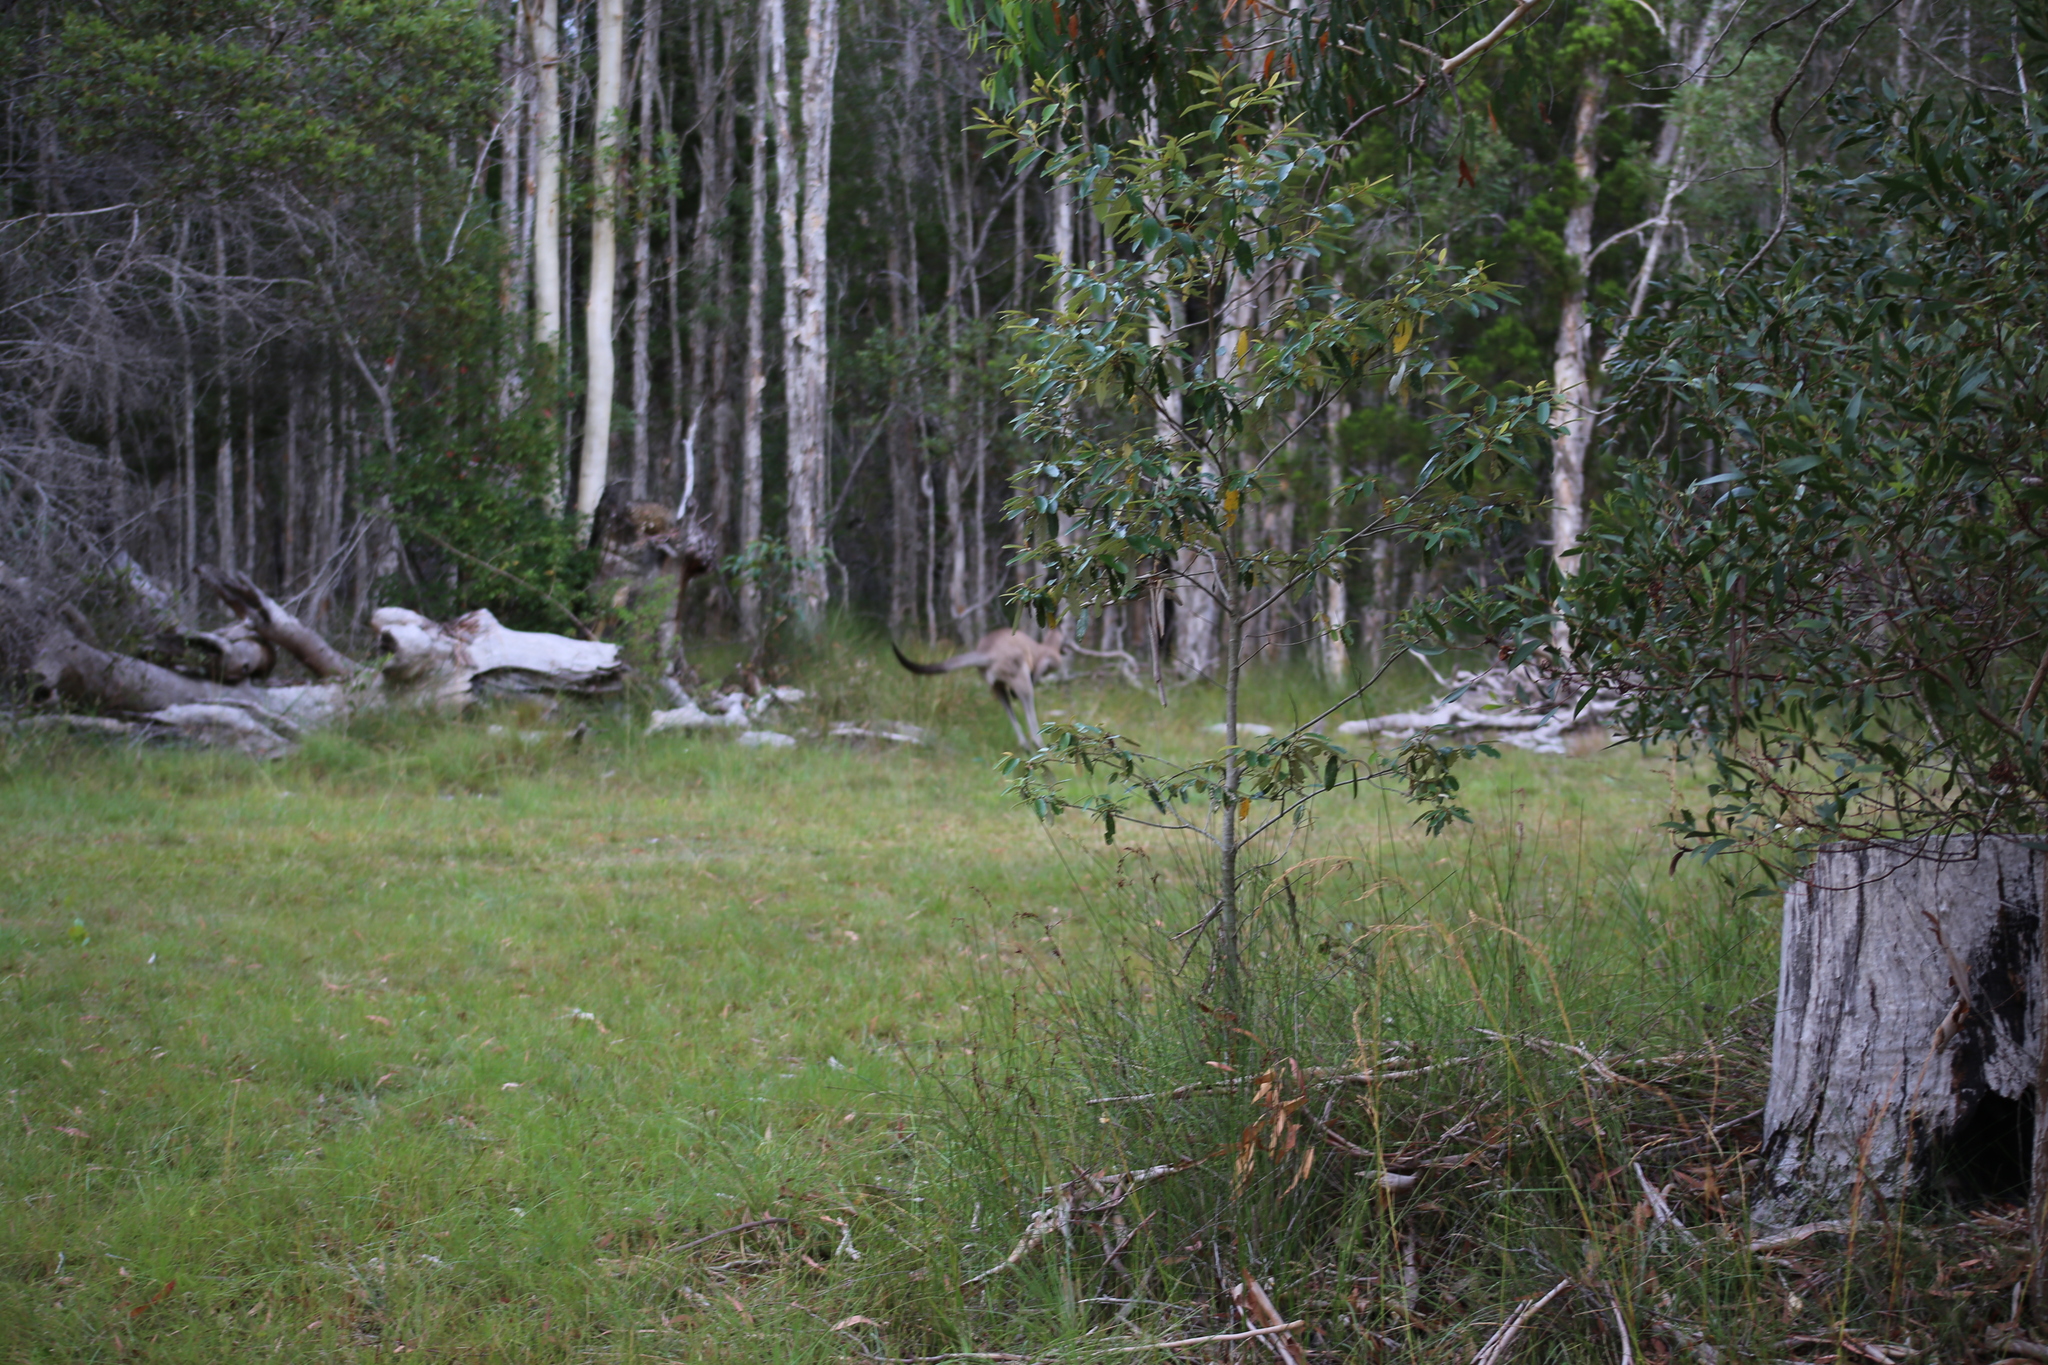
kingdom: Animalia
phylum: Chordata
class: Mammalia
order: Diprotodontia
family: Macropodidae
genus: Macropus
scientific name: Macropus giganteus
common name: Eastern grey kangaroo
